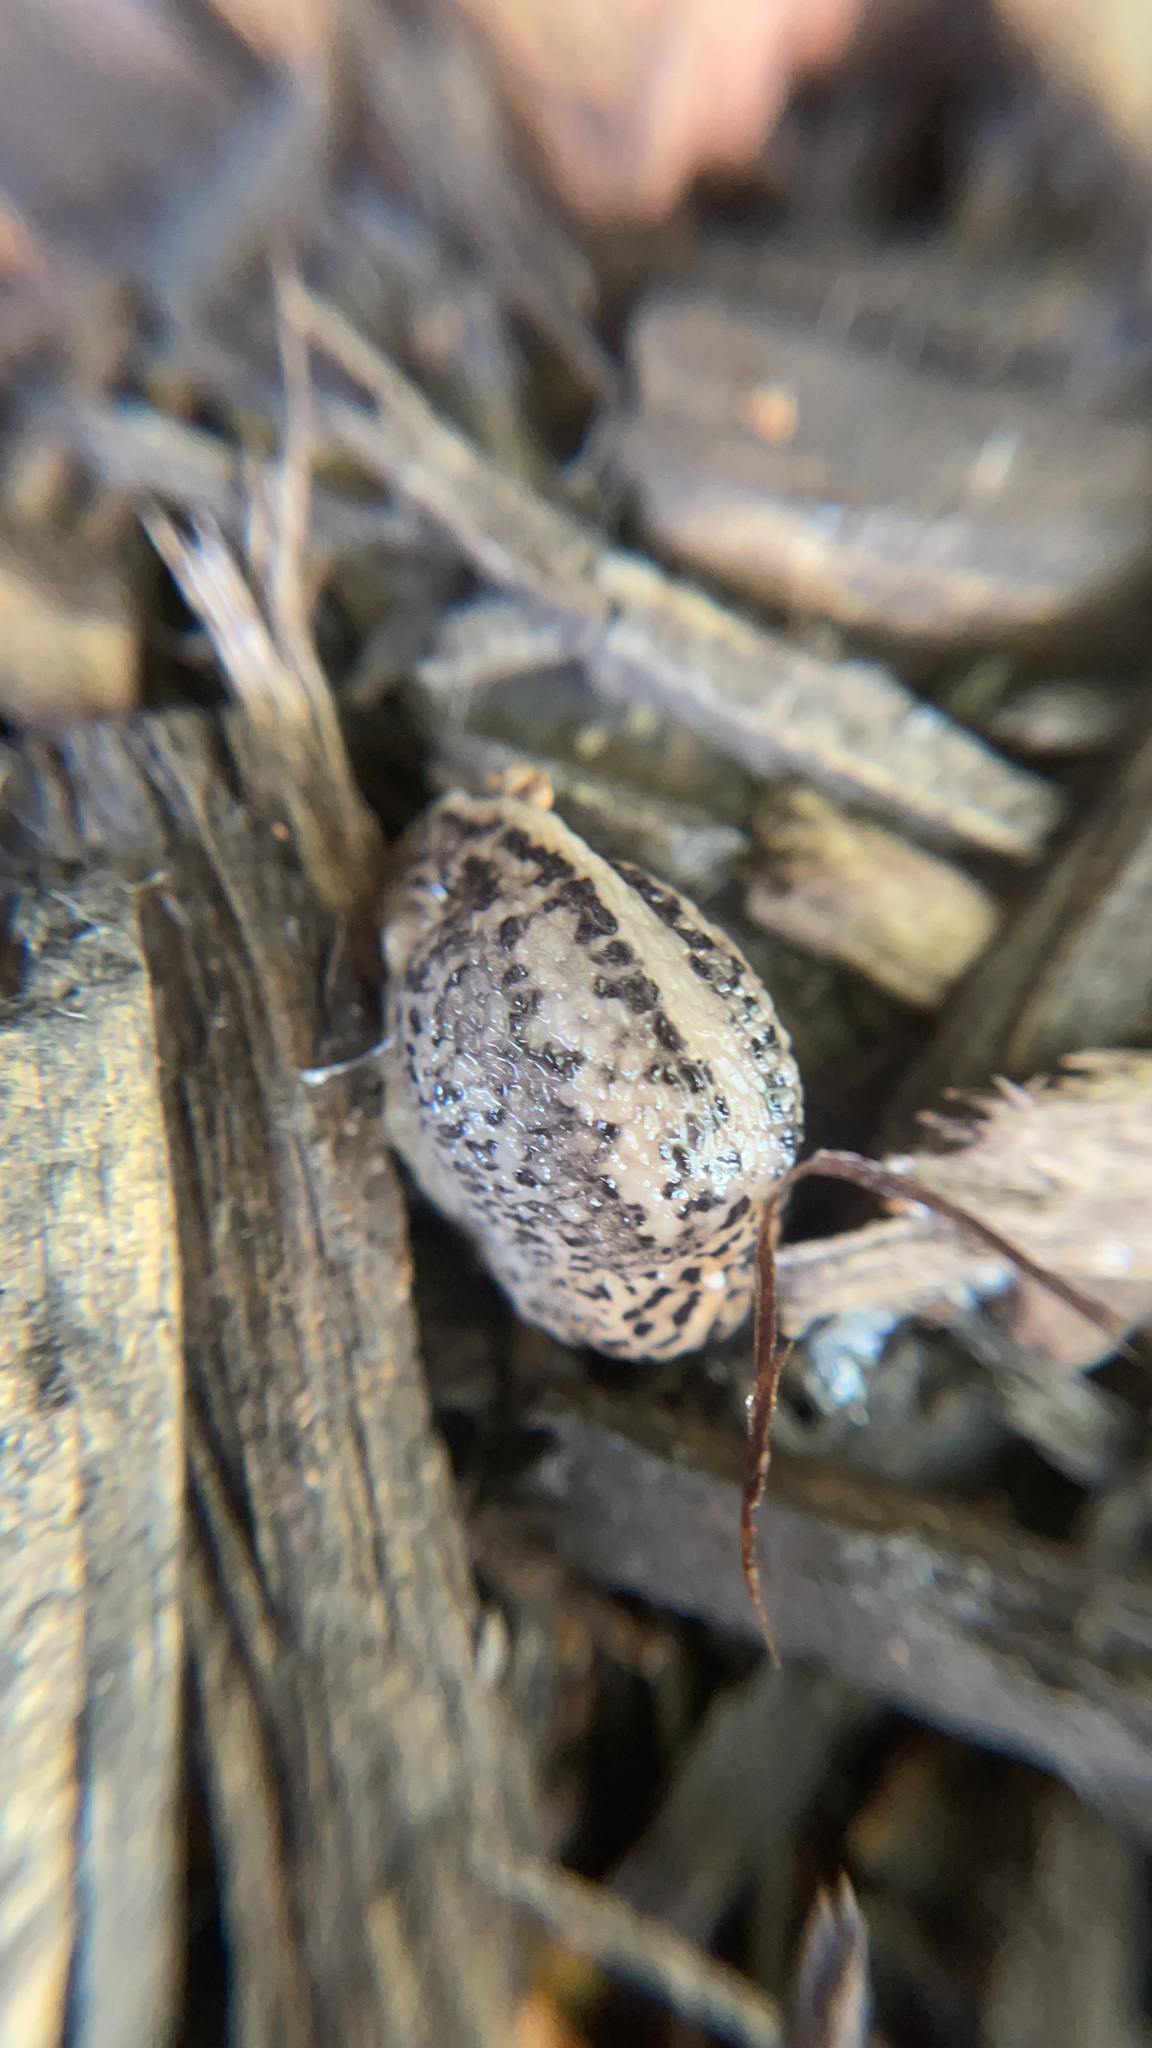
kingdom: Animalia
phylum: Mollusca
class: Gastropoda
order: Stylommatophora
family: Limacidae
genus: Limax
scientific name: Limax maximus
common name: Great grey slug
